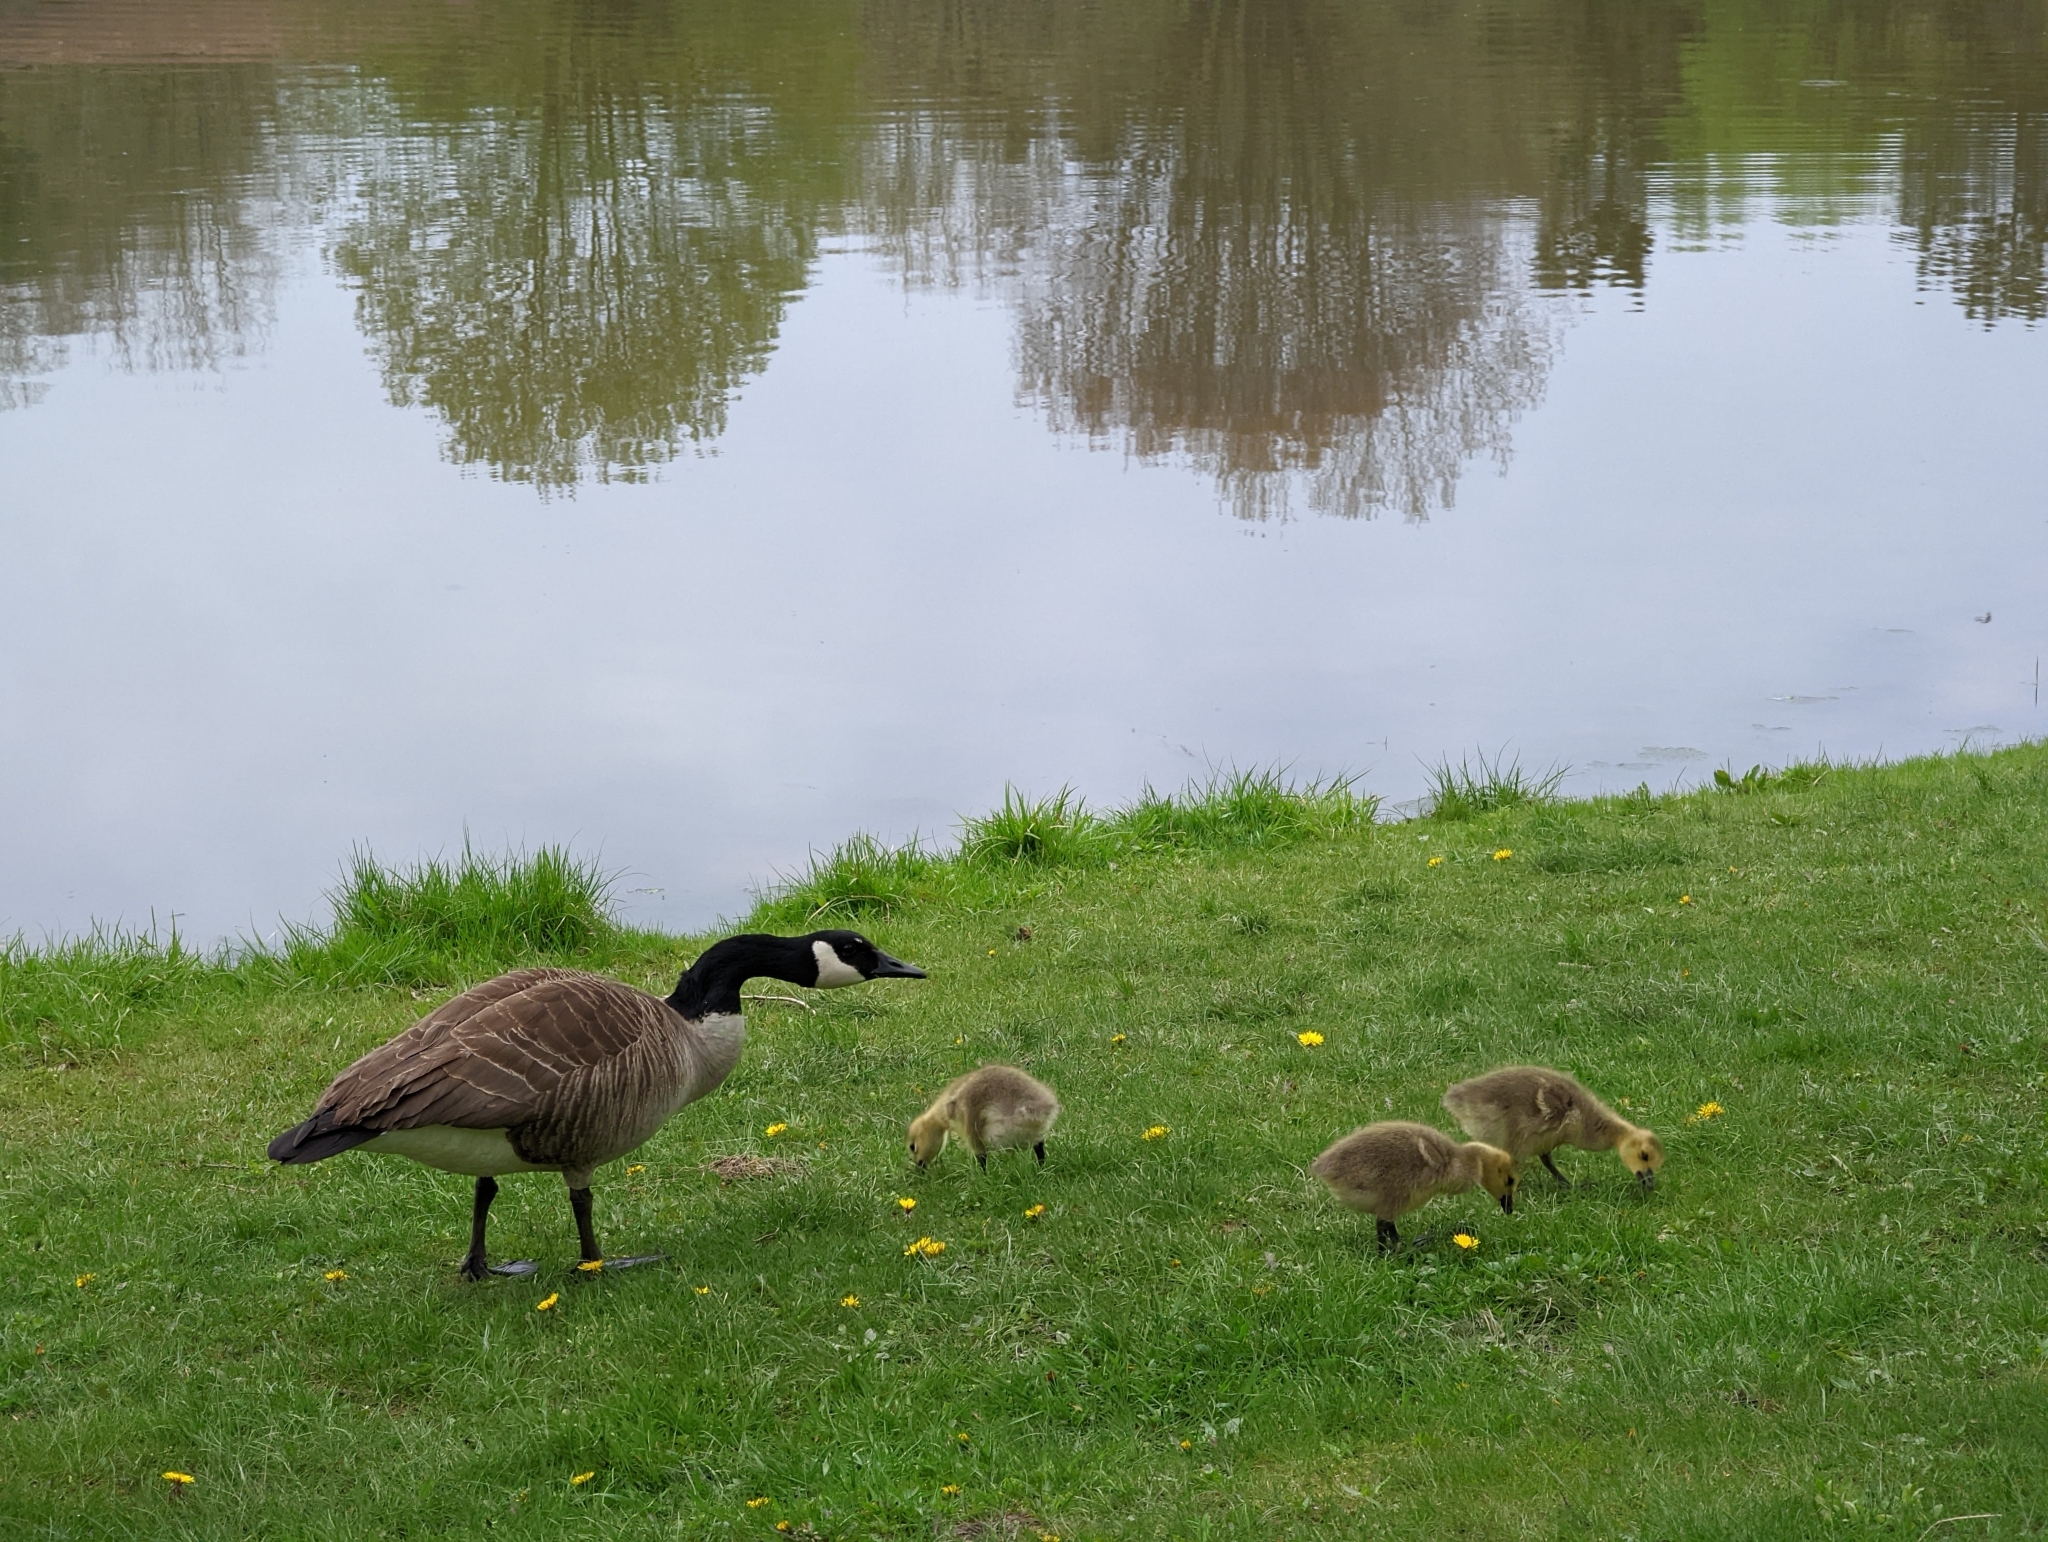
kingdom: Animalia
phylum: Chordata
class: Aves
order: Anseriformes
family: Anatidae
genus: Branta
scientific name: Branta canadensis
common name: Canada goose
